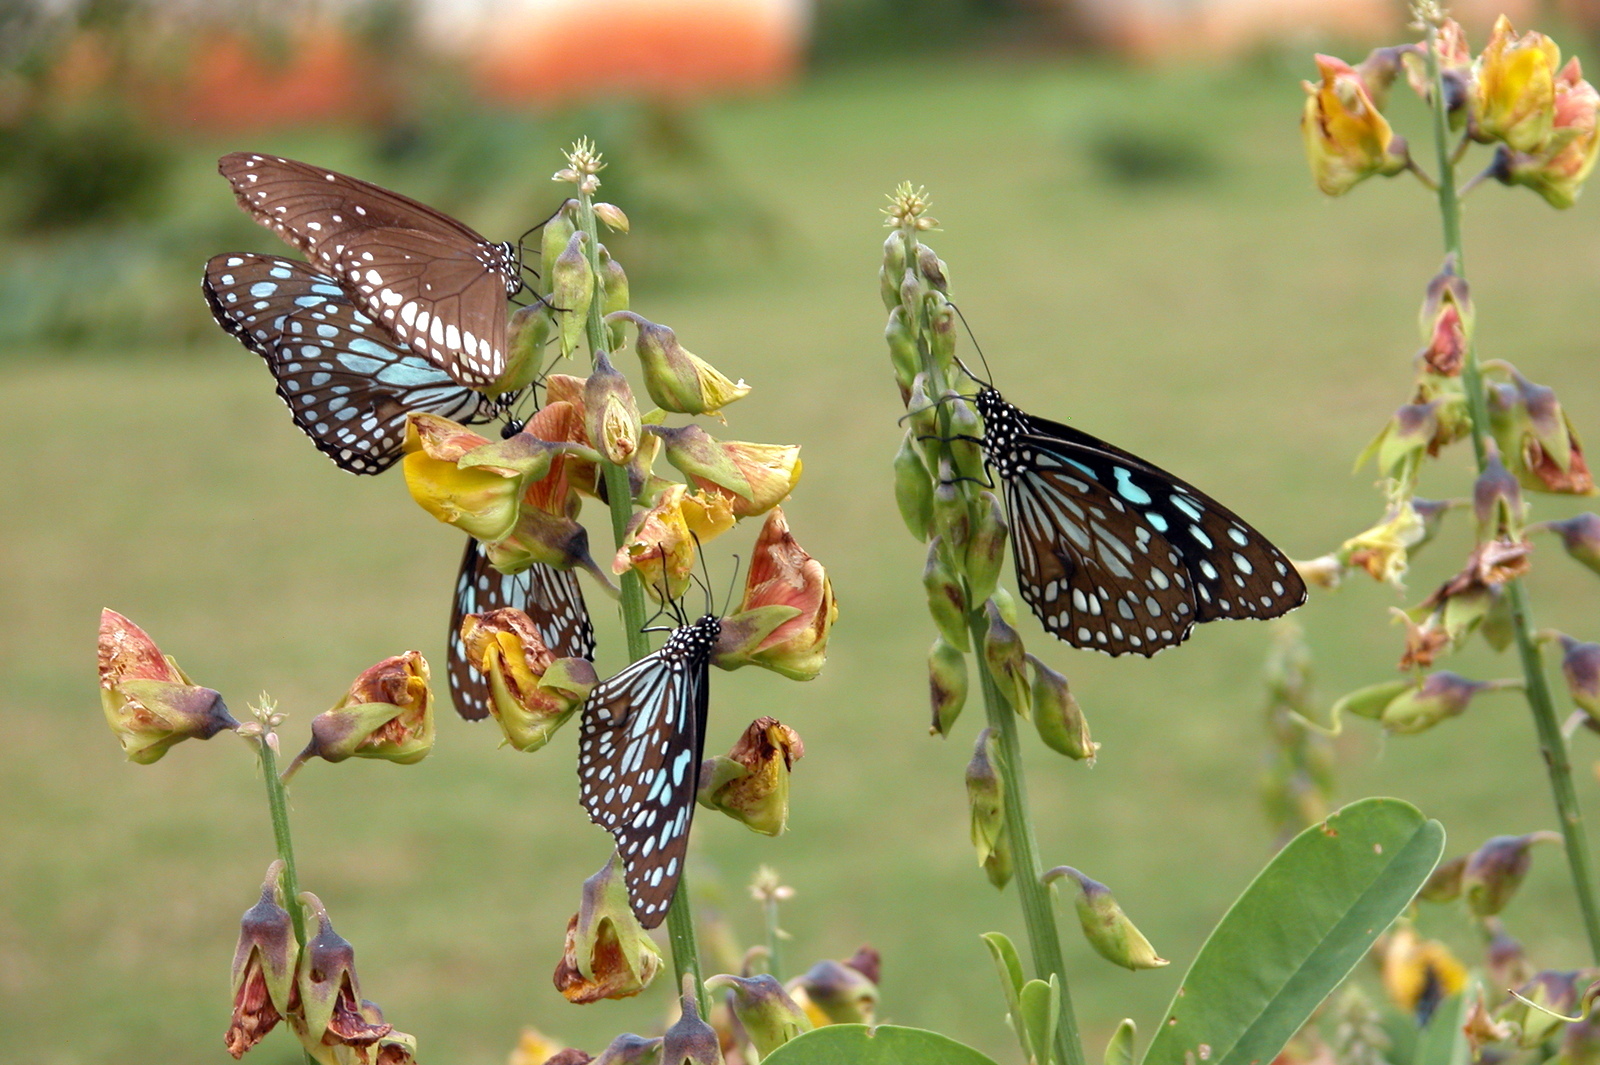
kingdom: Animalia
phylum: Arthropoda
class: Insecta
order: Lepidoptera
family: Nymphalidae
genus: Euploea
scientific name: Euploea core
